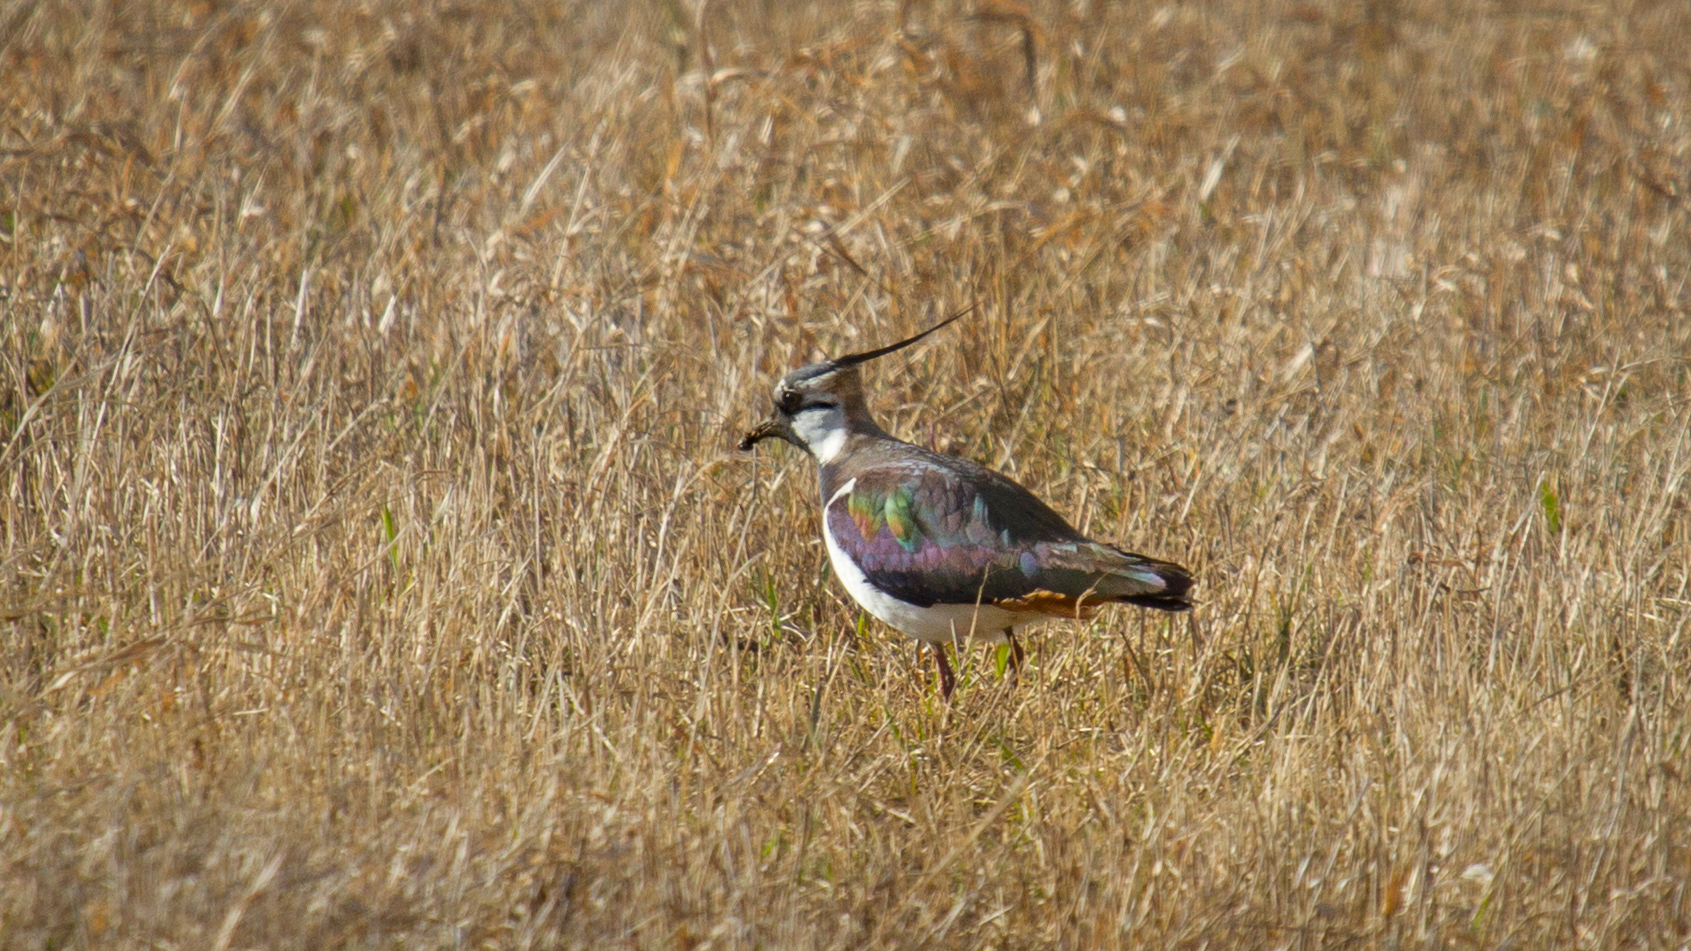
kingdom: Animalia
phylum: Chordata
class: Aves
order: Charadriiformes
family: Charadriidae
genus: Vanellus
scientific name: Vanellus vanellus
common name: Northern lapwing
